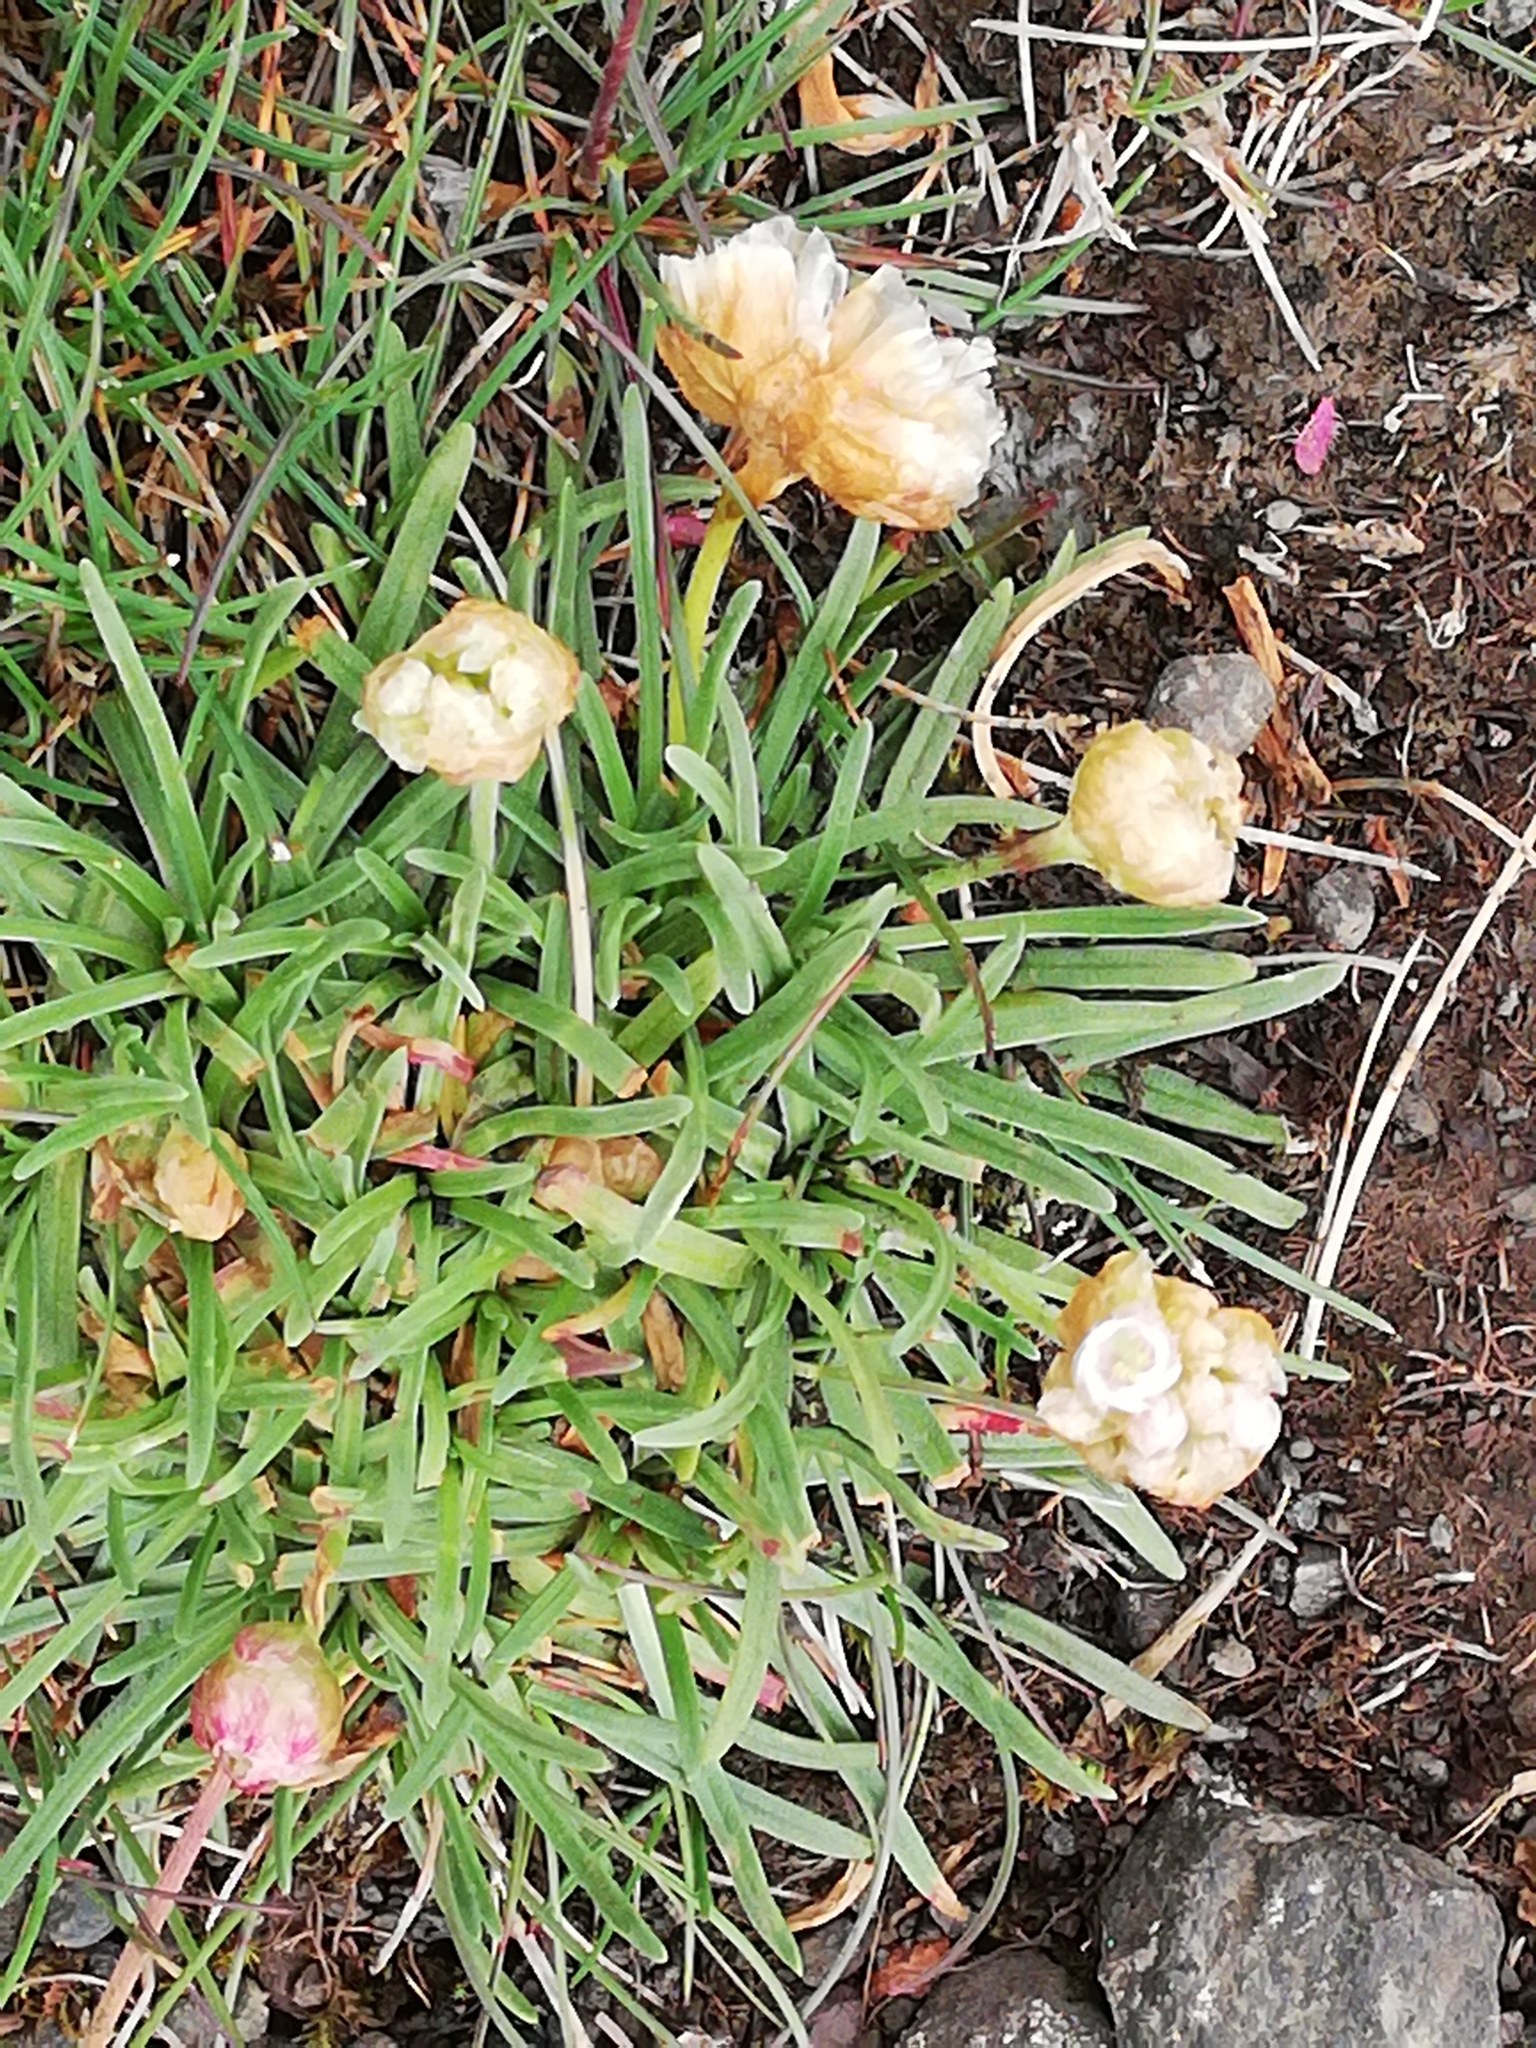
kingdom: Plantae
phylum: Tracheophyta
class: Magnoliopsida
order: Caryophyllales
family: Plumbaginaceae
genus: Armeria
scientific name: Armeria maritima
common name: Thrift
